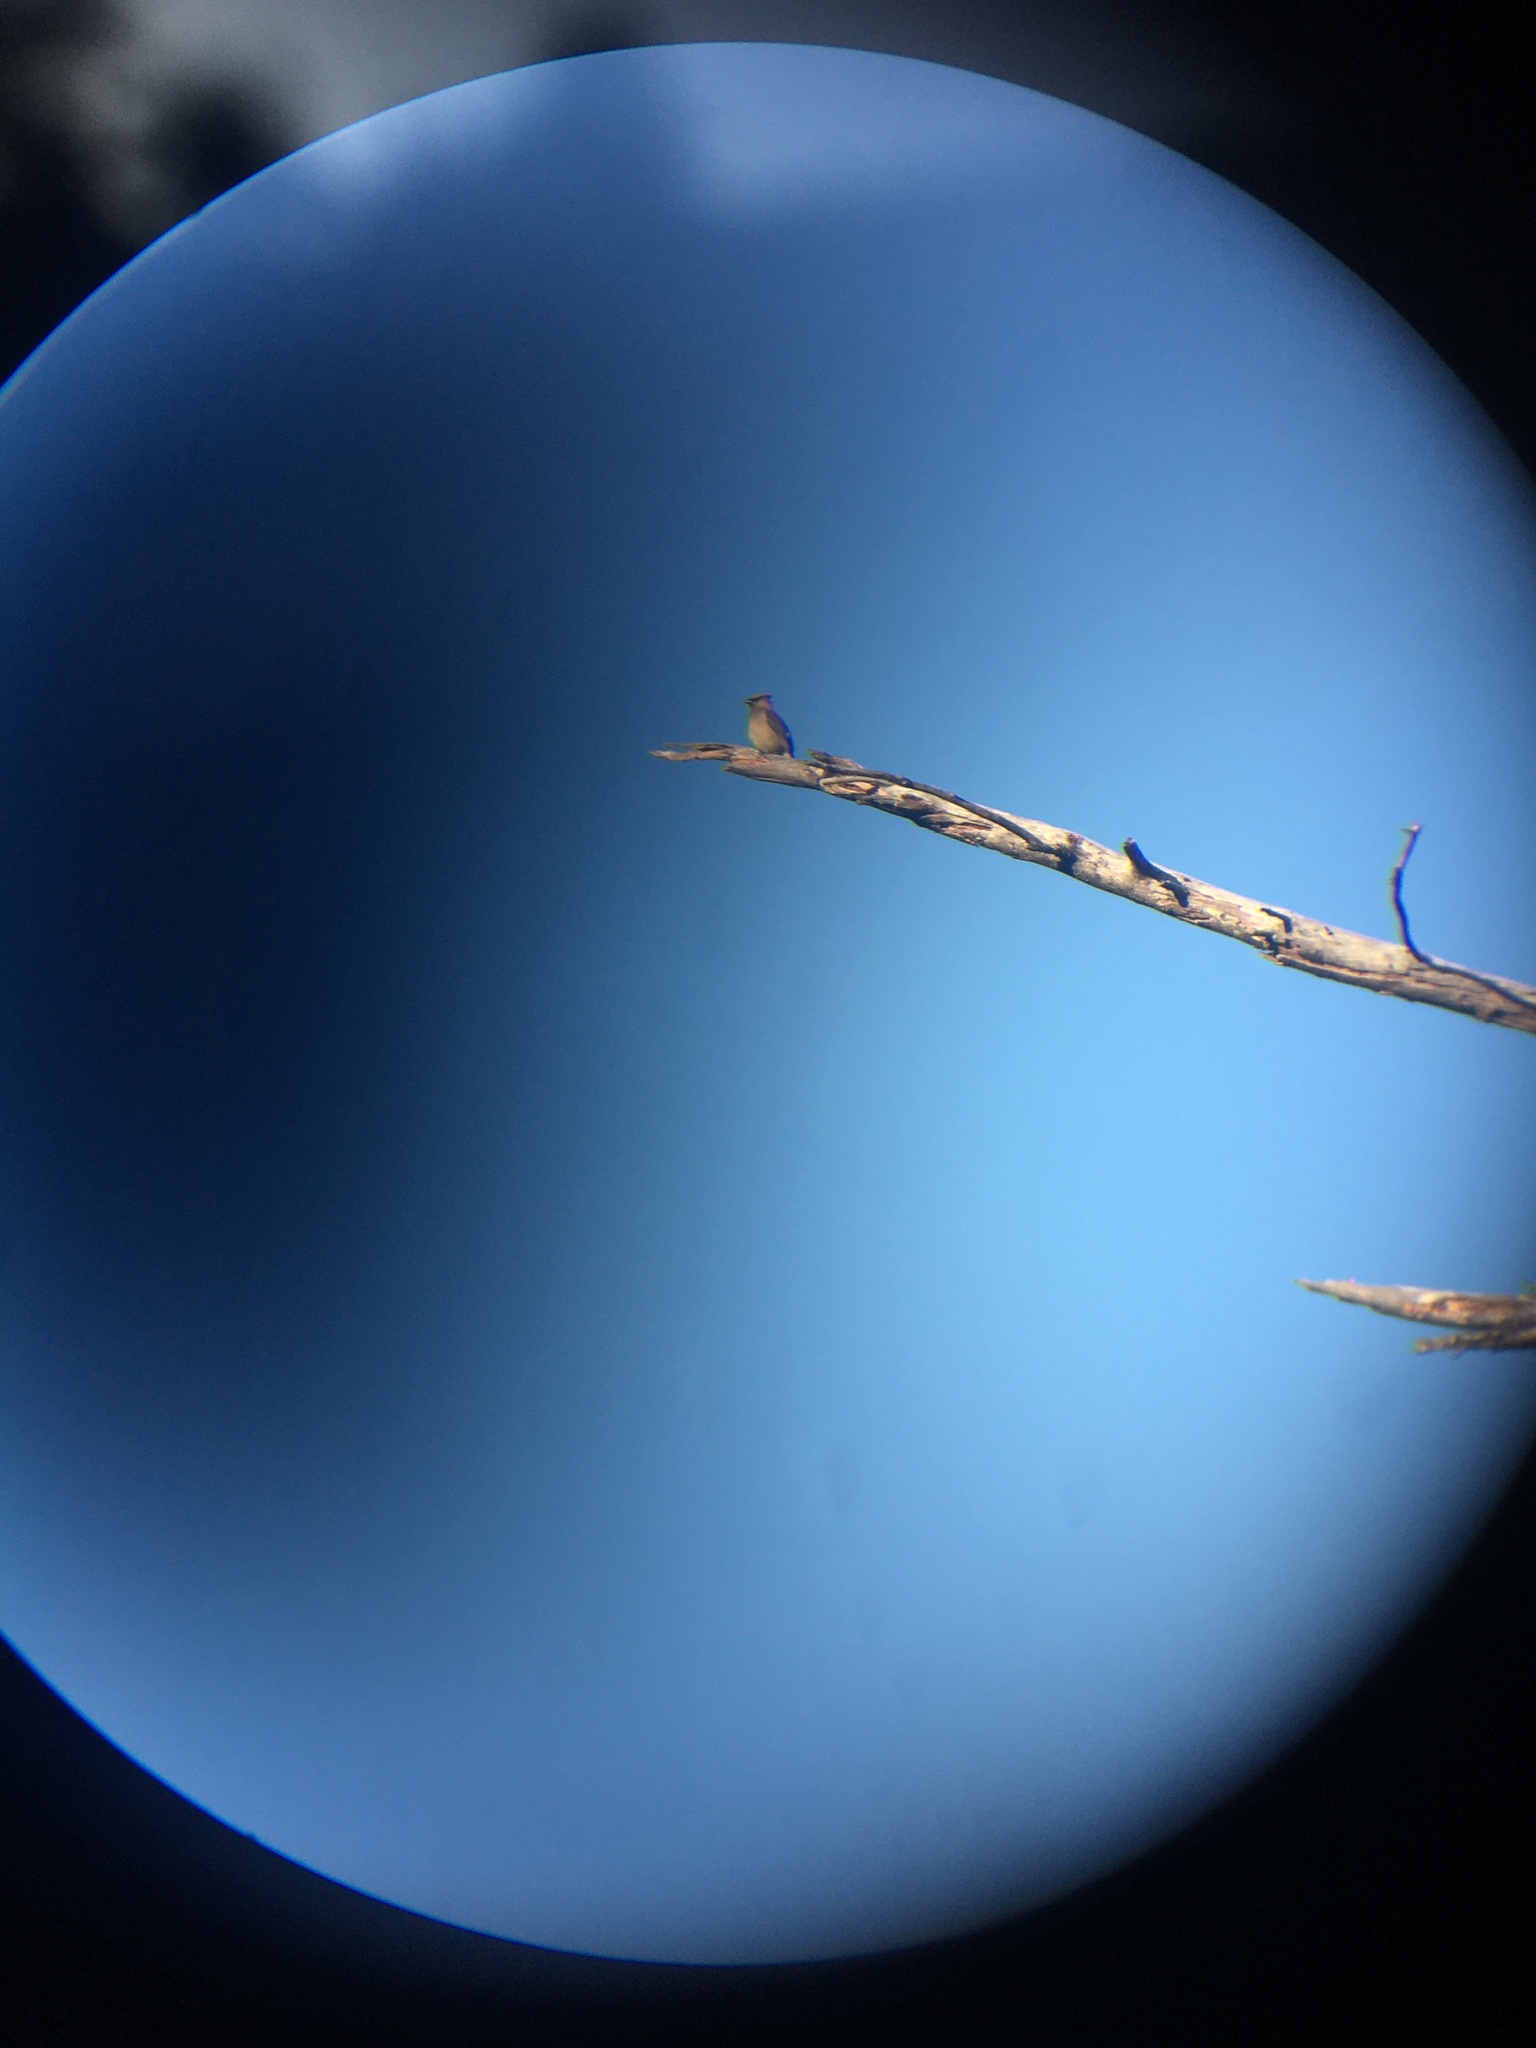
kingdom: Animalia
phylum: Chordata
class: Aves
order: Passeriformes
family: Bombycillidae
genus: Bombycilla
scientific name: Bombycilla cedrorum
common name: Cedar waxwing
